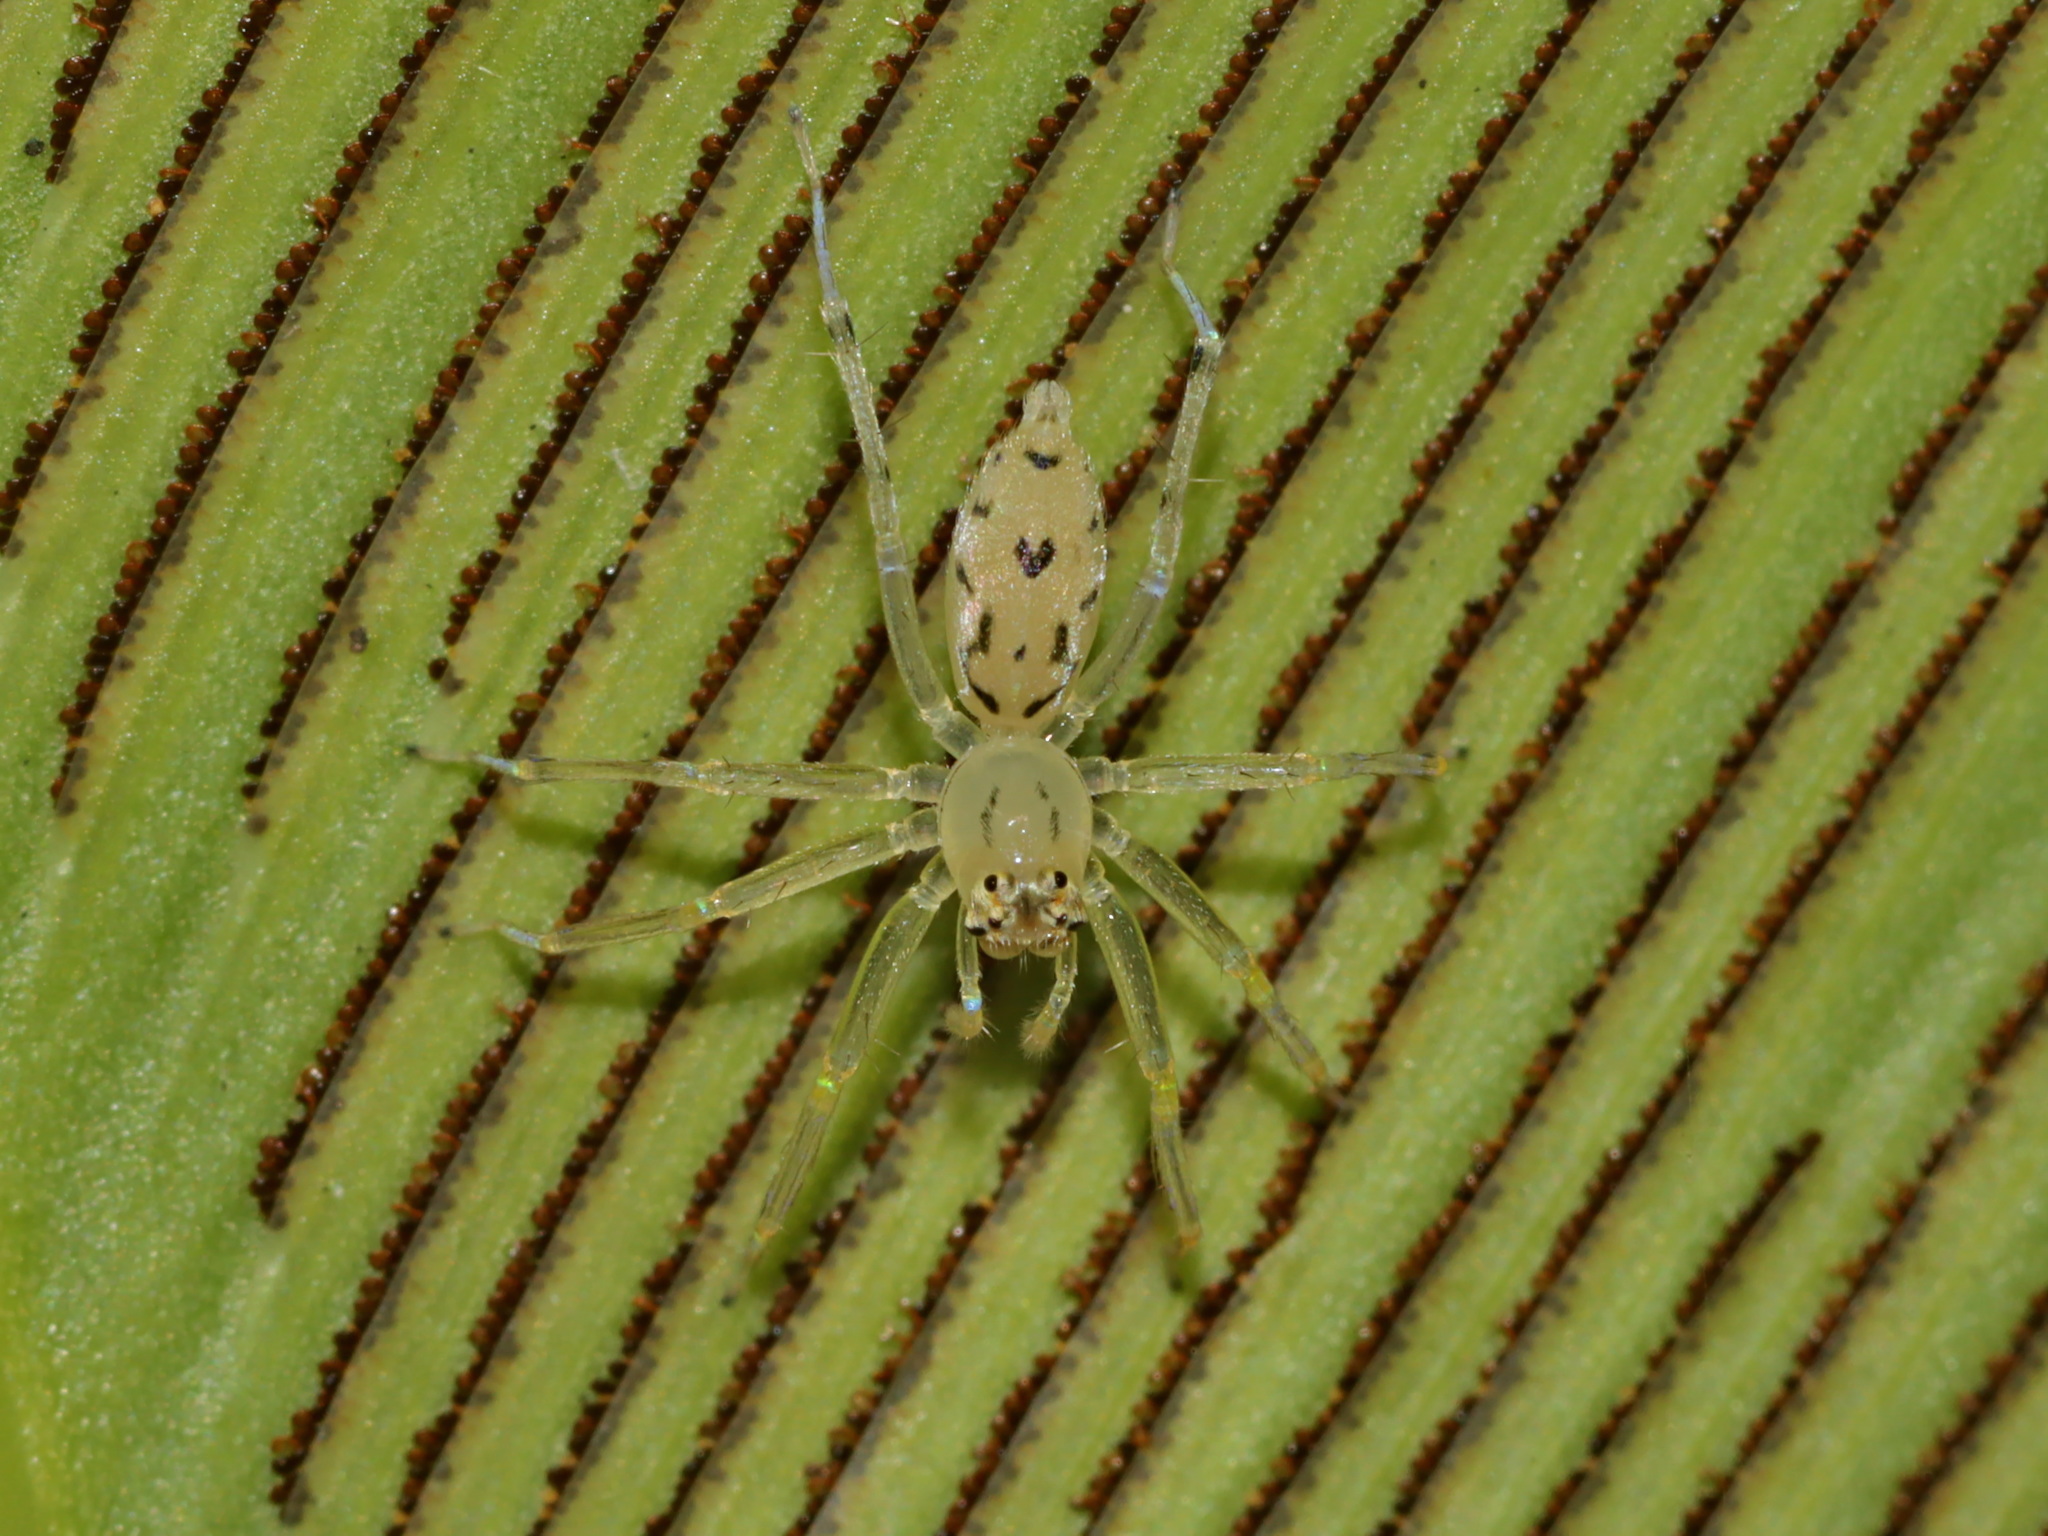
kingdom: Animalia
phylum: Arthropoda
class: Arachnida
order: Araneae
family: Salticidae
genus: Asemonea
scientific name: Asemonea cristata
